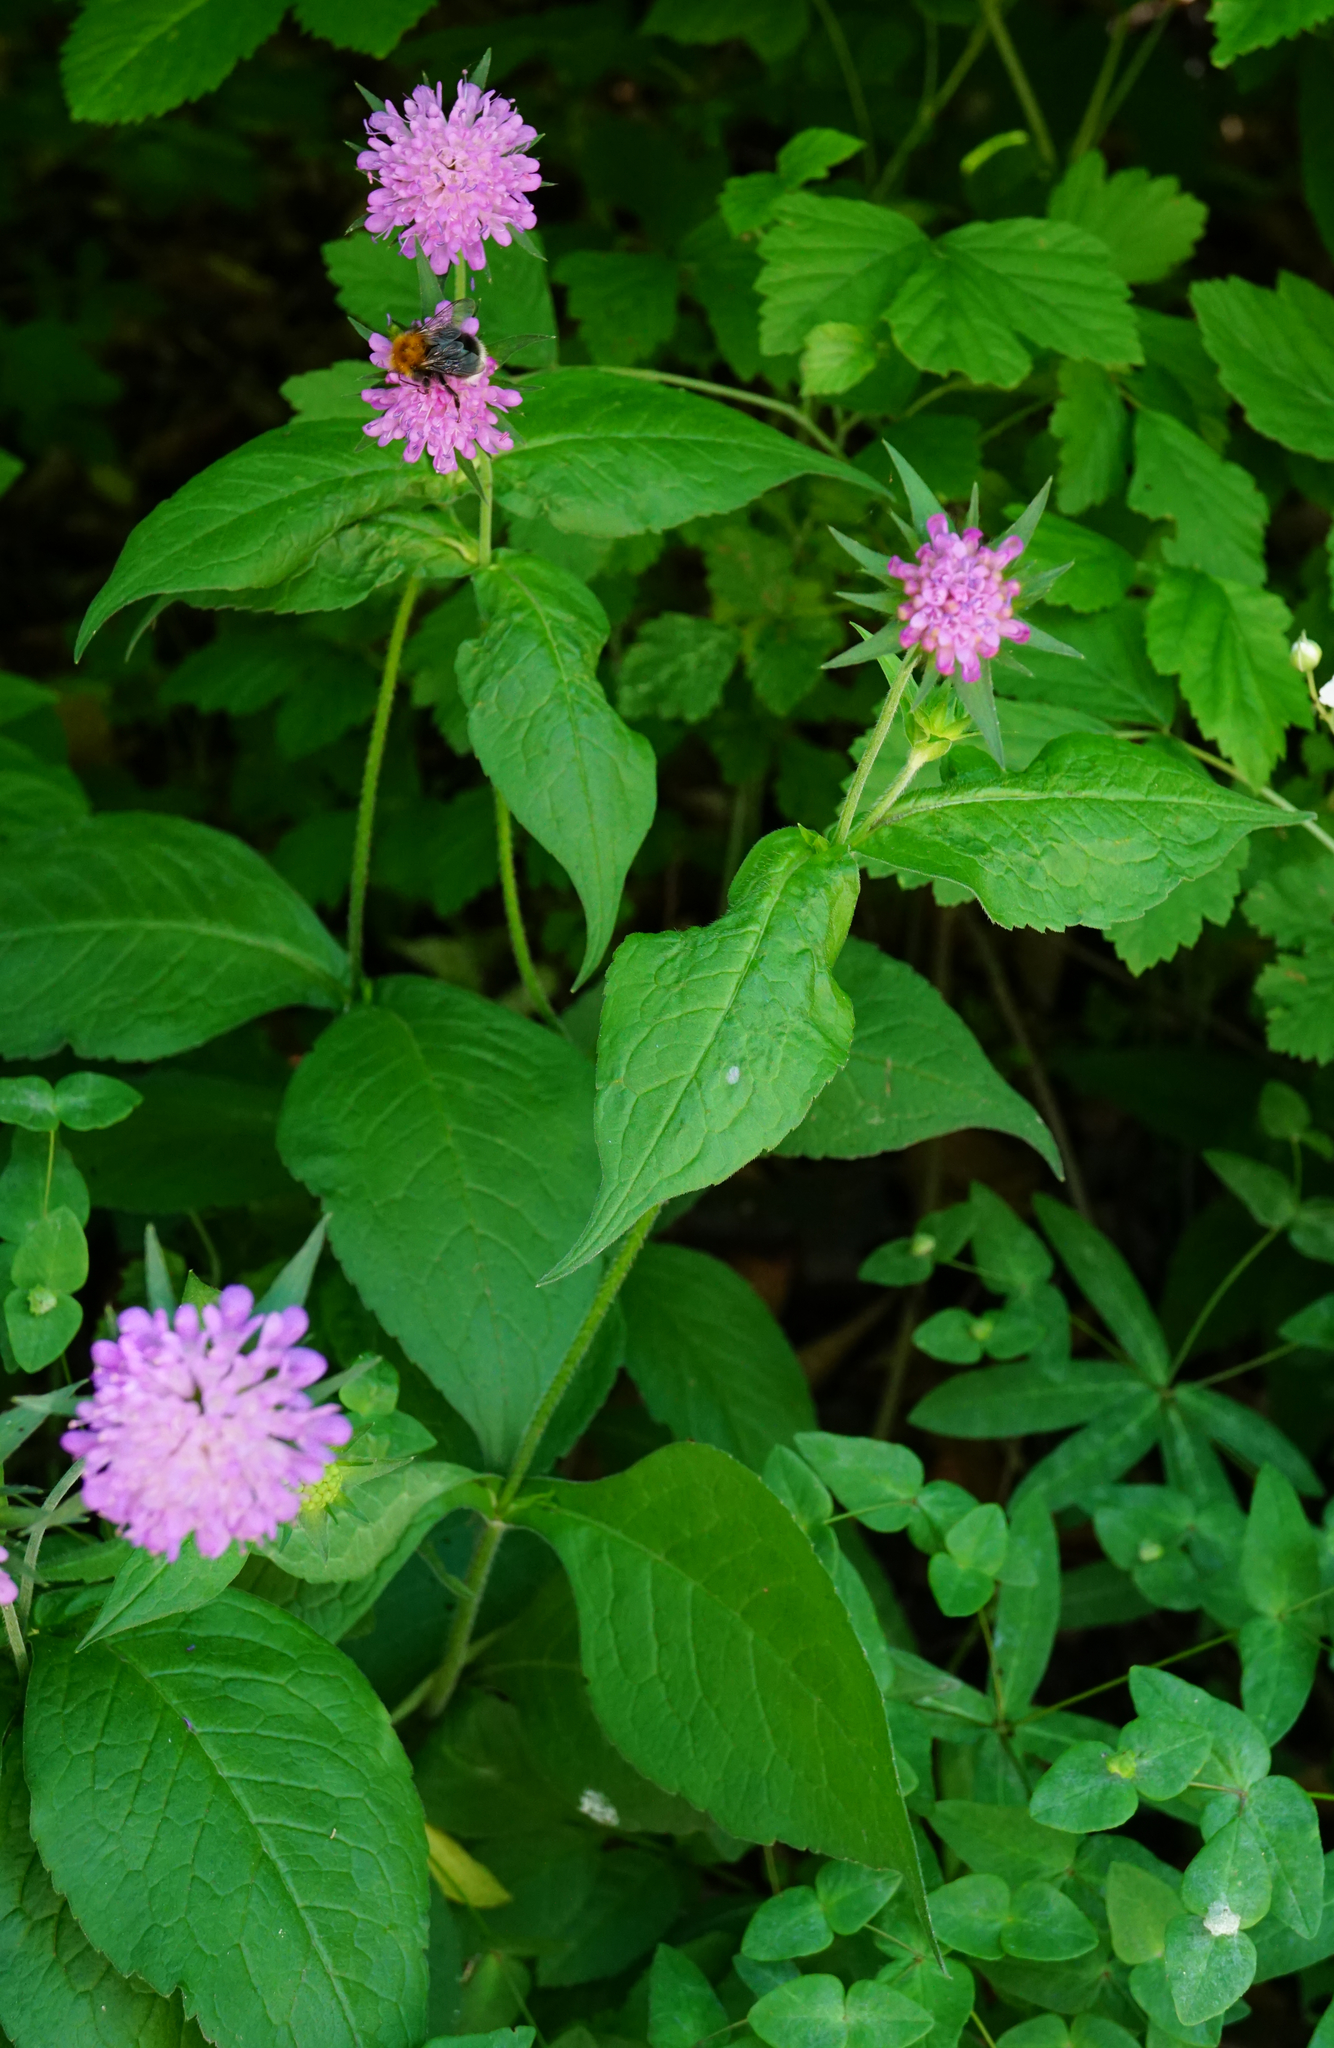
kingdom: Plantae
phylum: Tracheophyta
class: Magnoliopsida
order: Dipsacales
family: Caprifoliaceae
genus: Knautia
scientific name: Knautia drymeia
